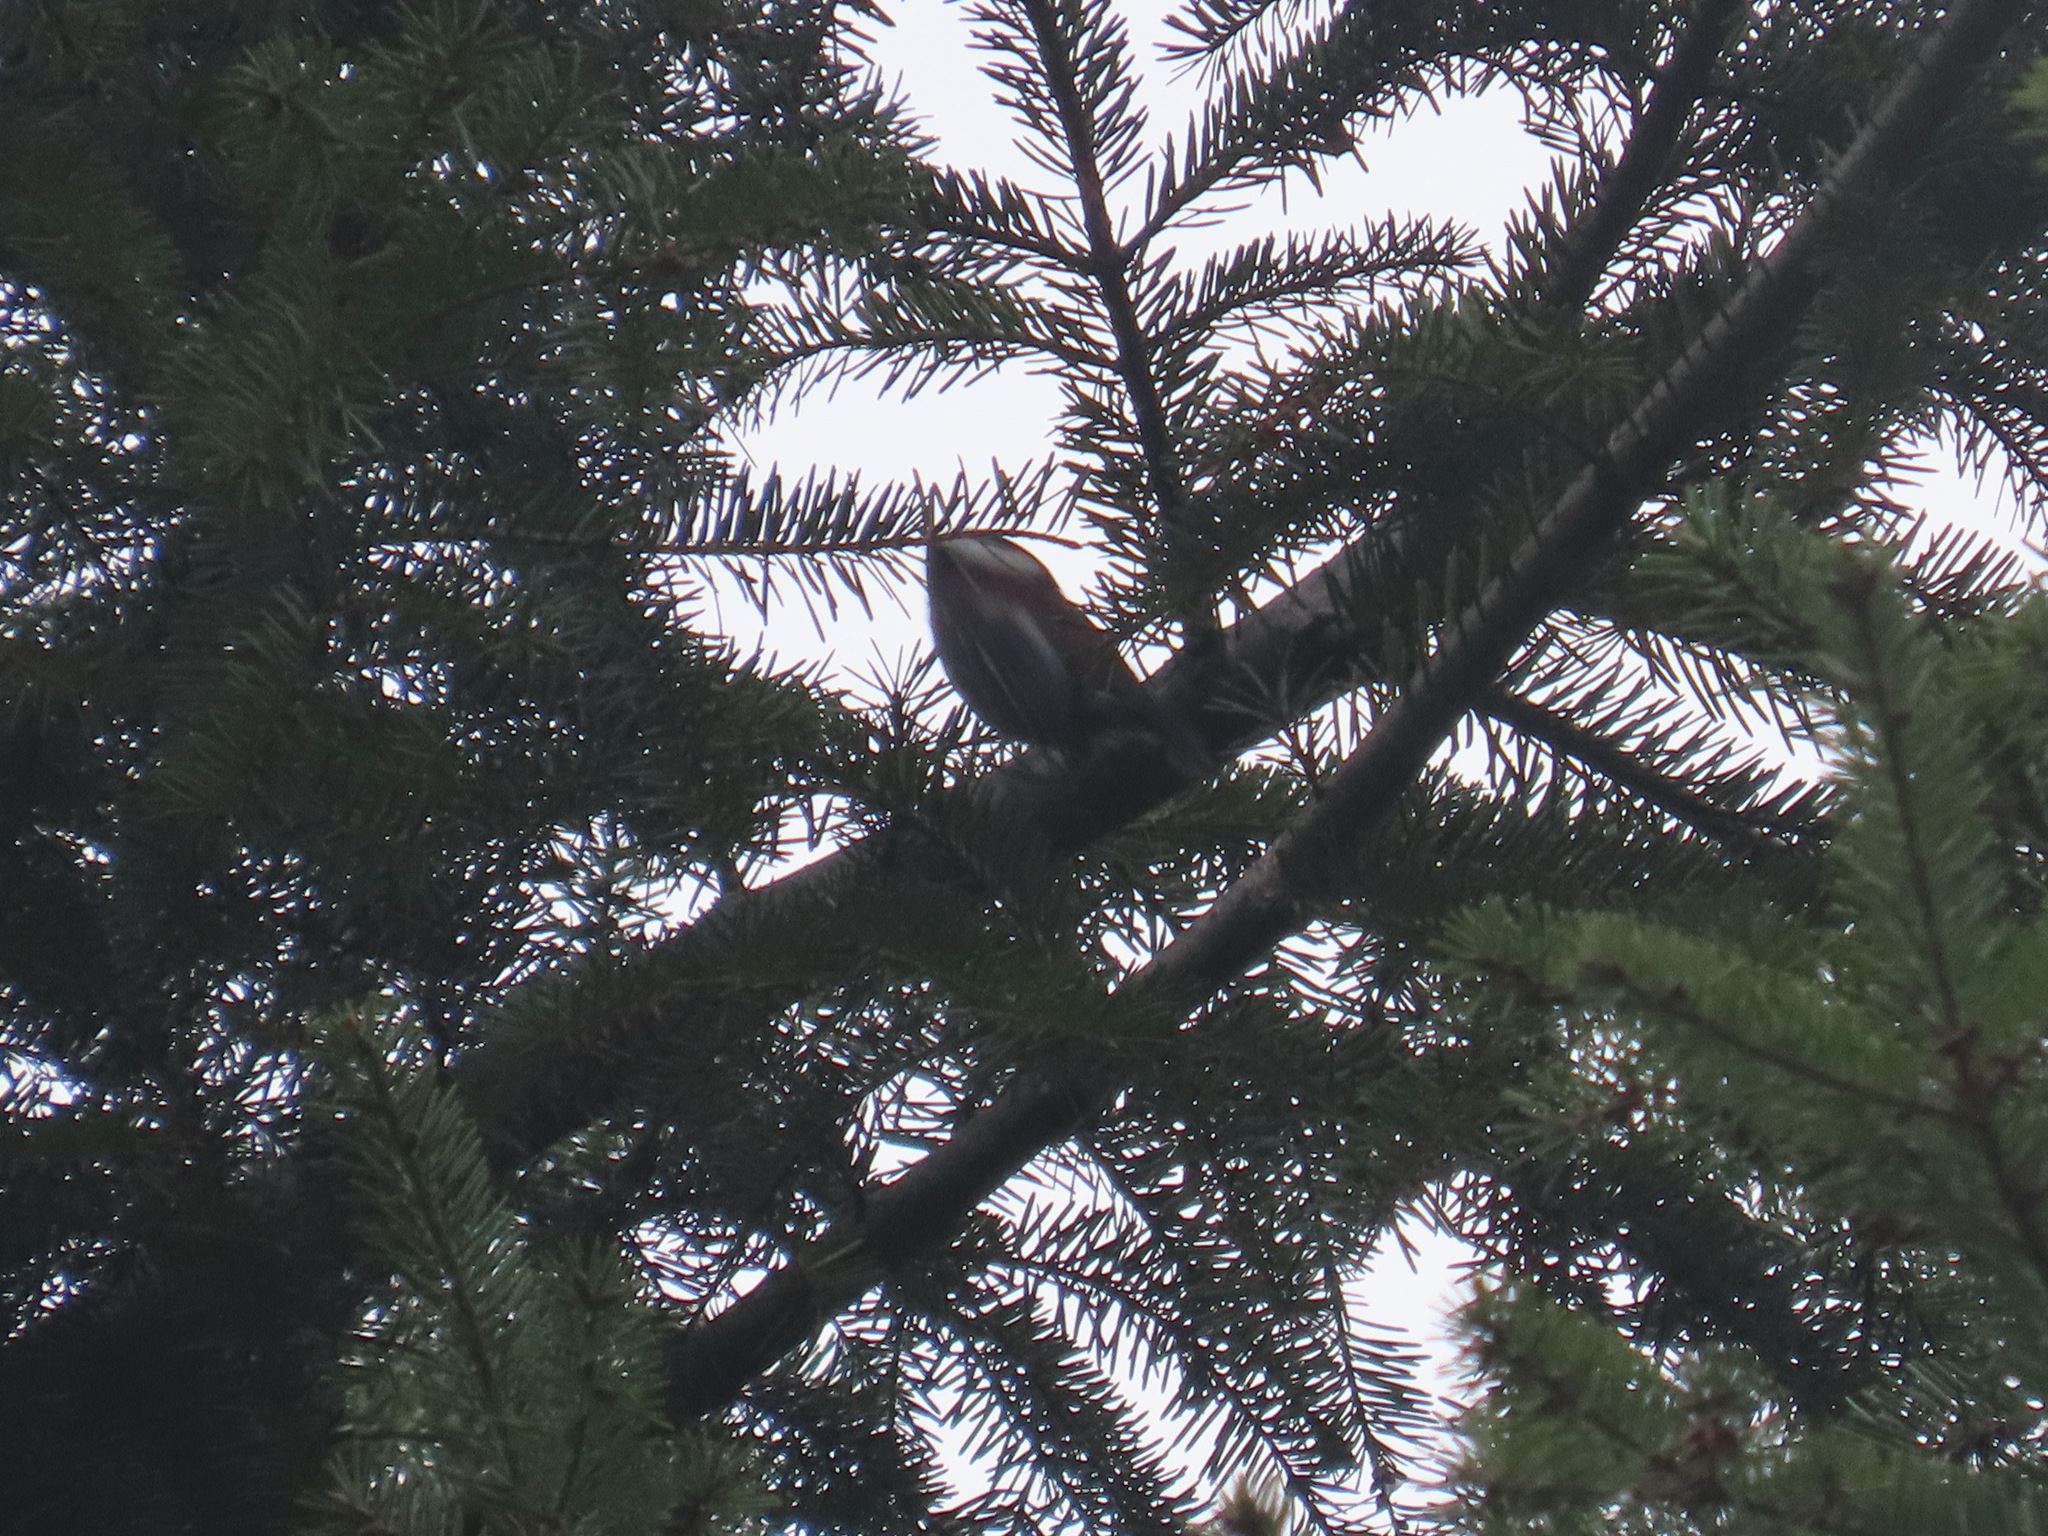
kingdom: Animalia
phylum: Chordata
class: Aves
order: Passeriformes
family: Paridae
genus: Poecile
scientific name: Poecile rufescens
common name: Chestnut-backed chickadee
